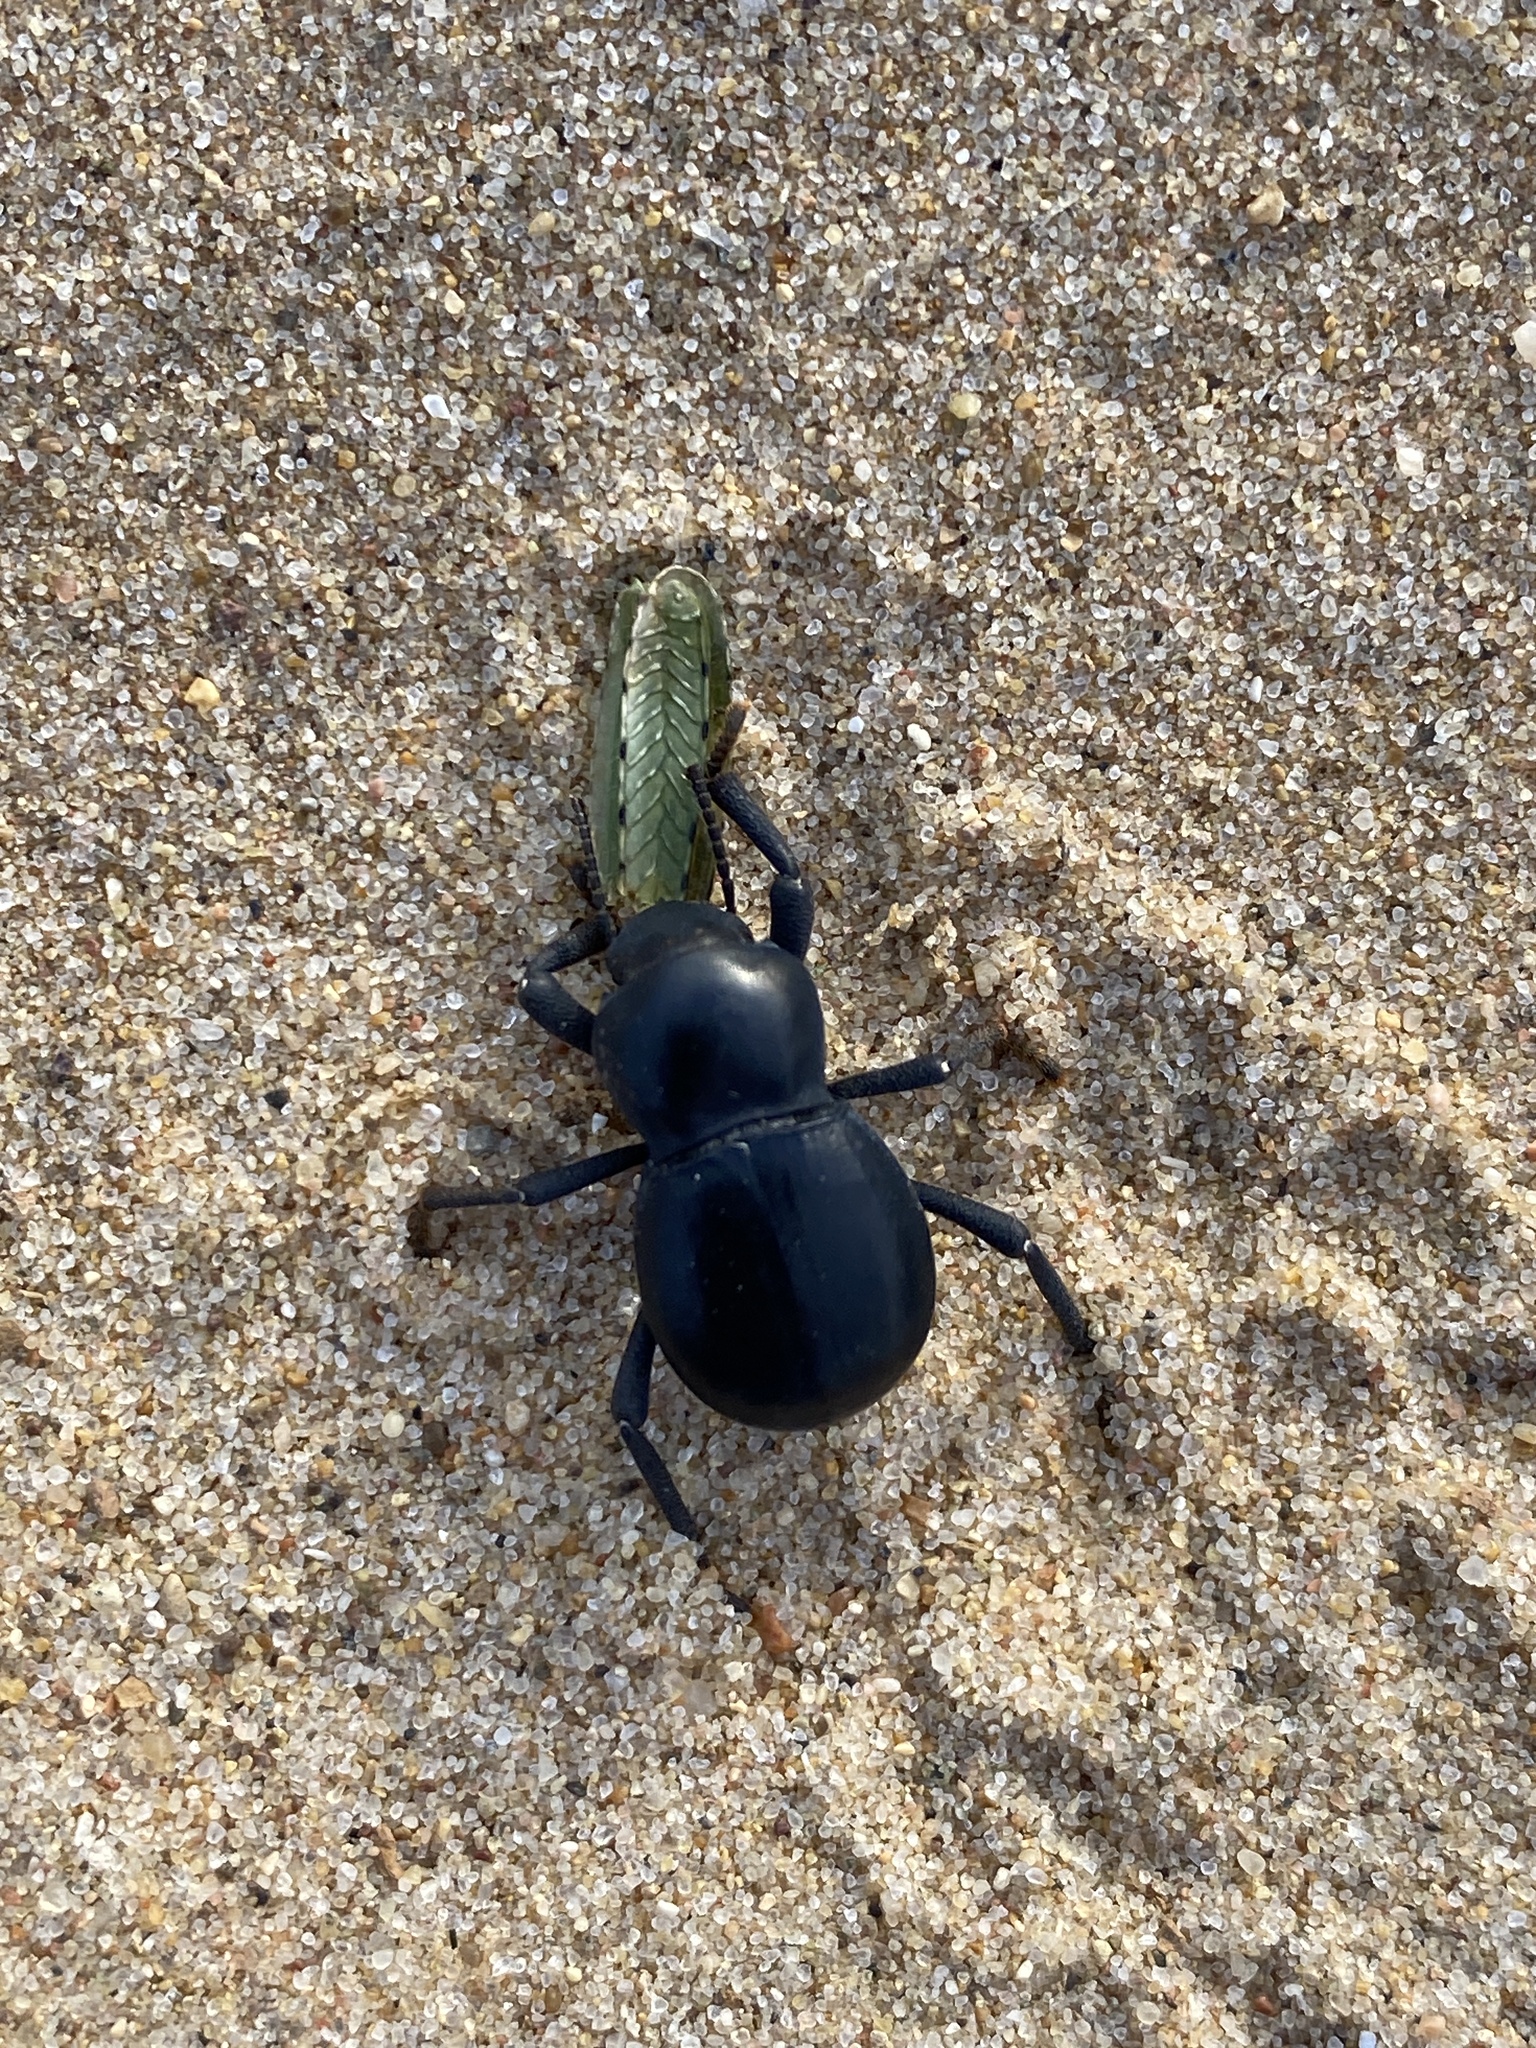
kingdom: Animalia
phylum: Arthropoda
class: Insecta
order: Coleoptera
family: Tenebrionidae
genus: Asbolus
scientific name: Asbolus laevis
